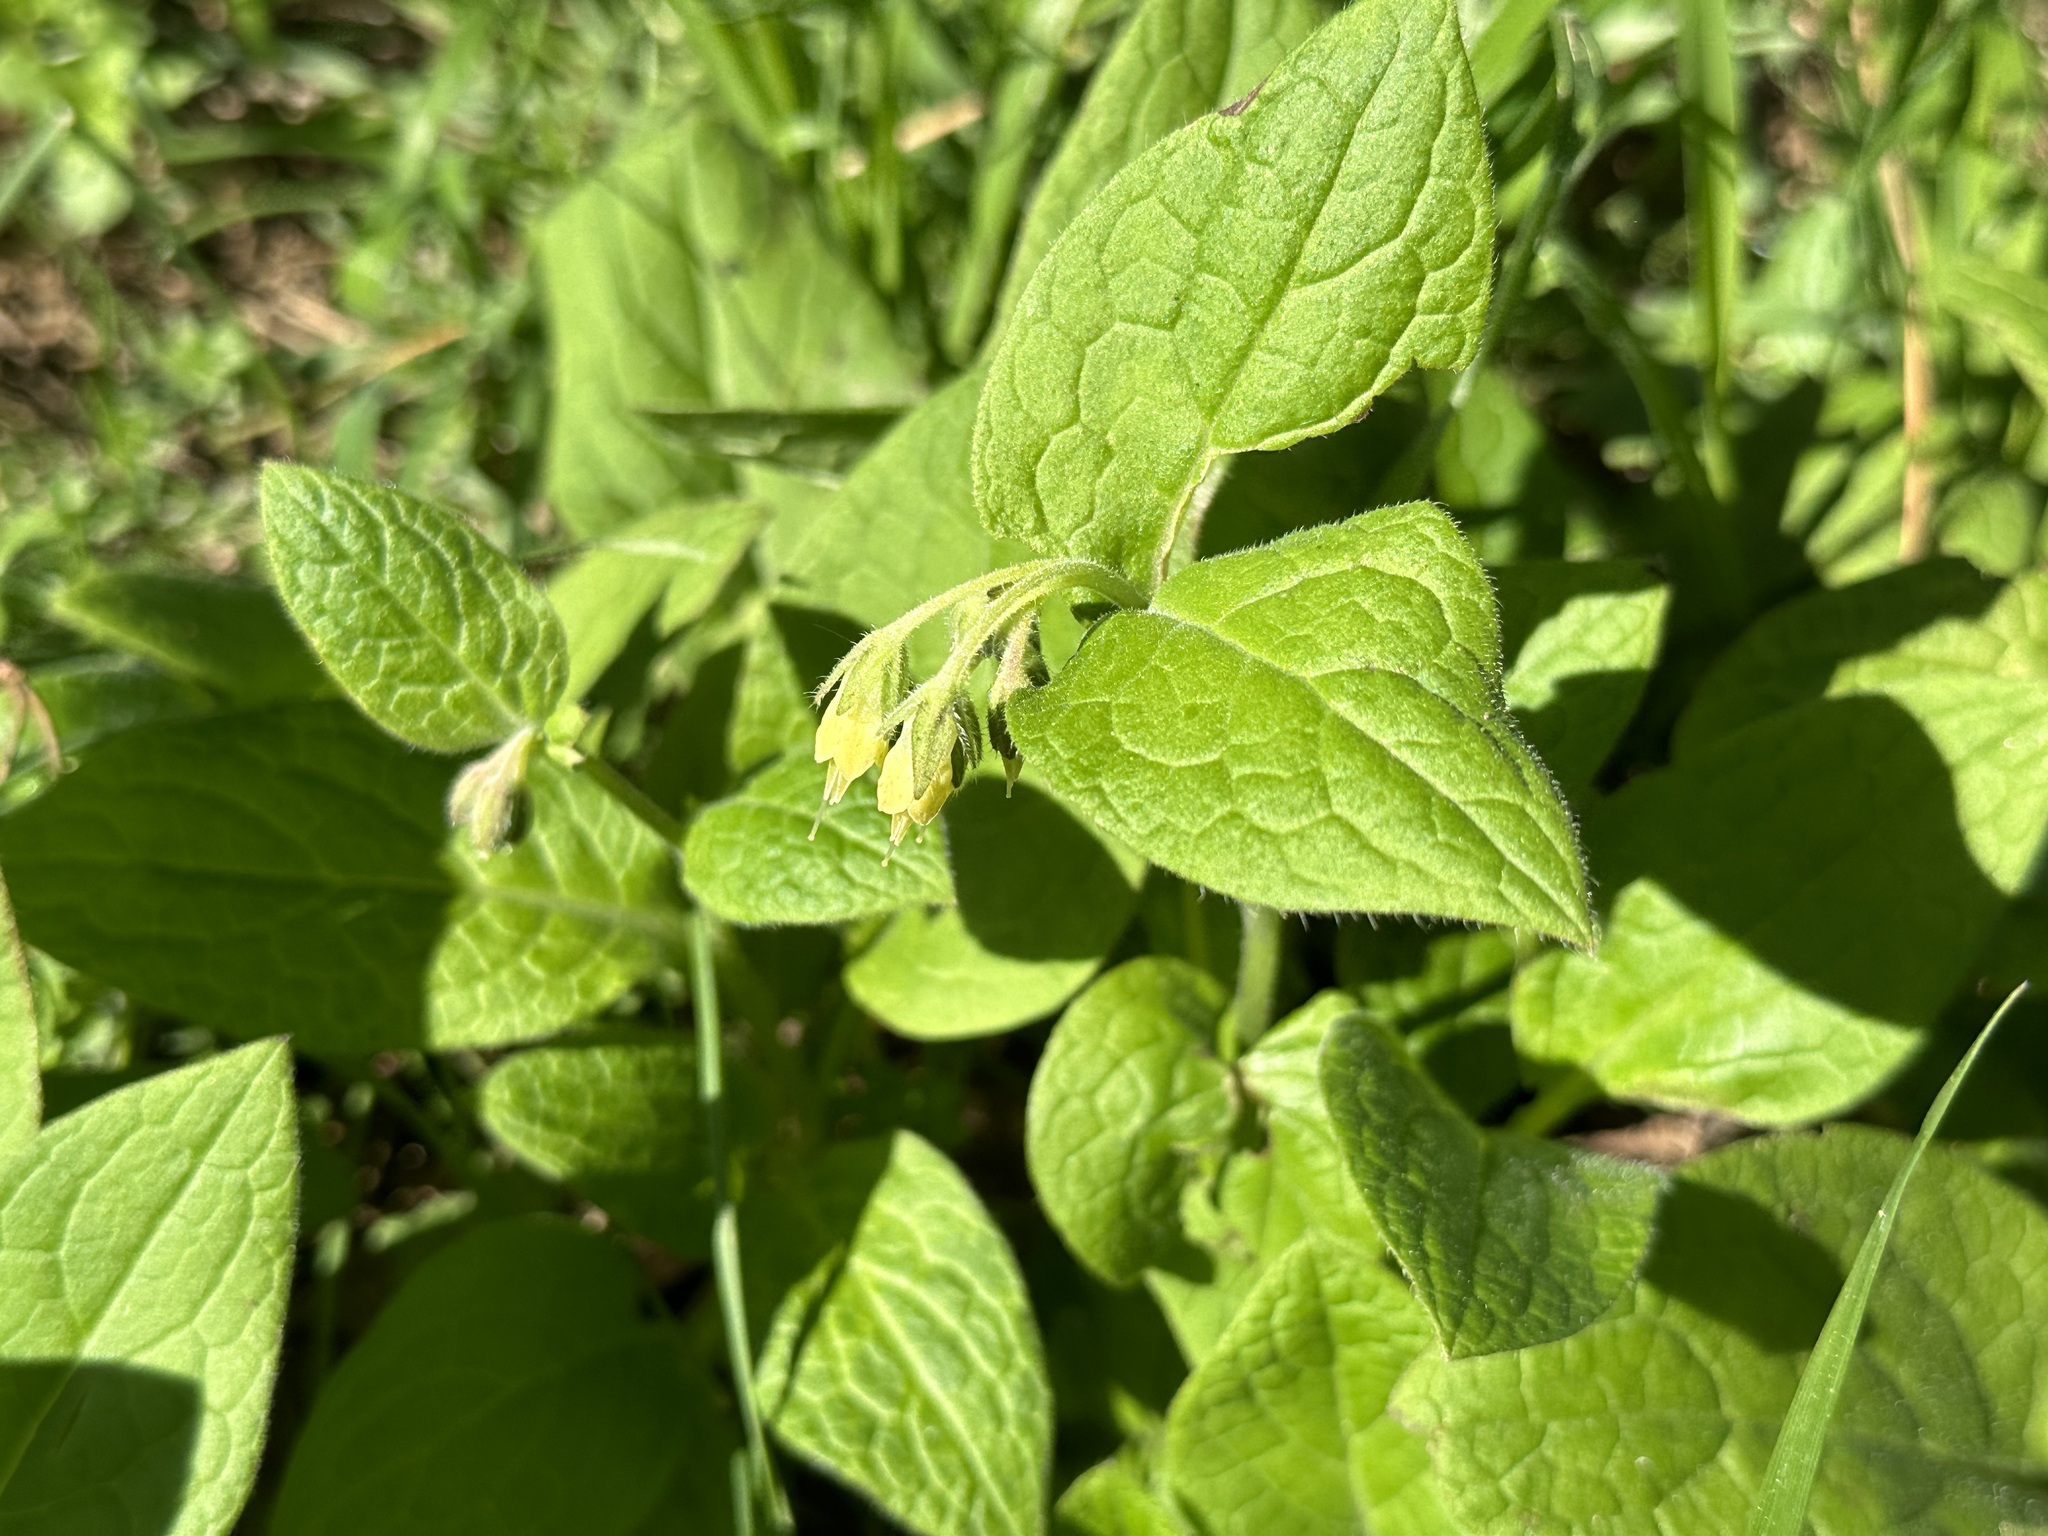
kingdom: Plantae
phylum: Tracheophyta
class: Magnoliopsida
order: Boraginales
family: Boraginaceae
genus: Symphytum
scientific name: Symphytum bulbosum
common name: Bulbous comfrey
